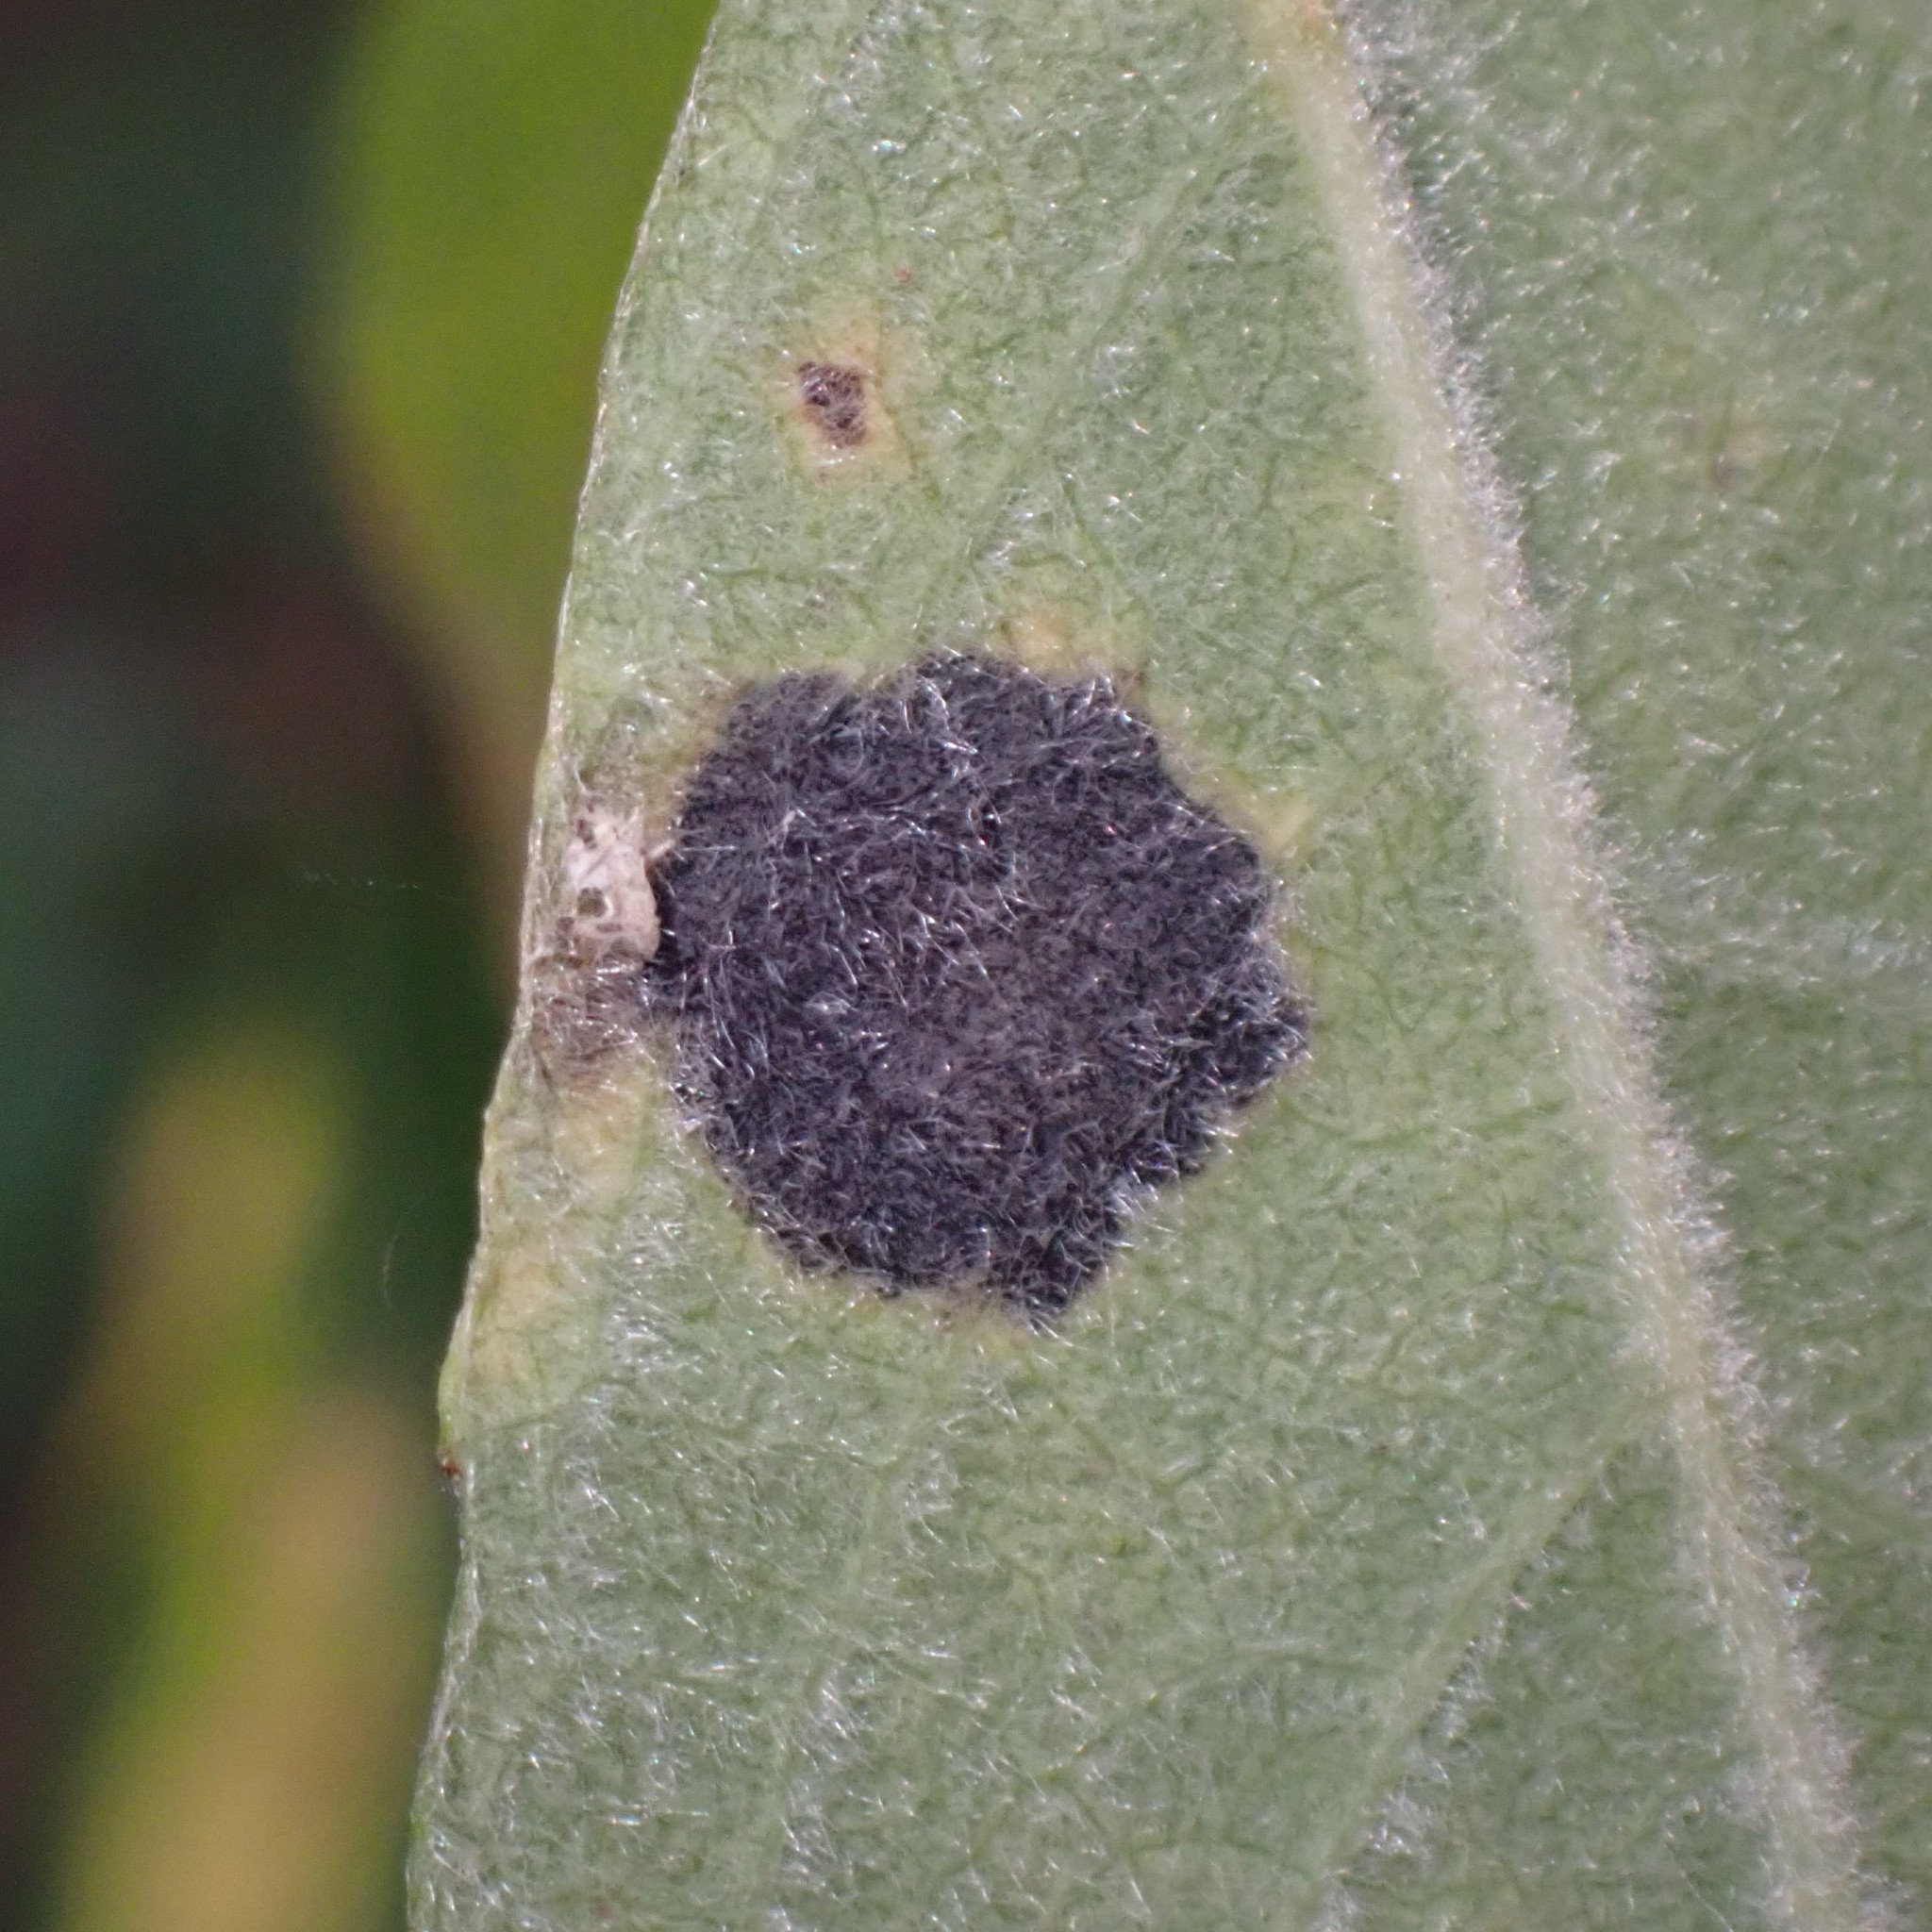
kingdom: Fungi
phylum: Ascomycota
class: Leotiomycetes
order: Rhytismatales
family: Rhytismataceae
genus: Rhytisma
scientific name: Rhytisma salicinum
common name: Willow tarspot
